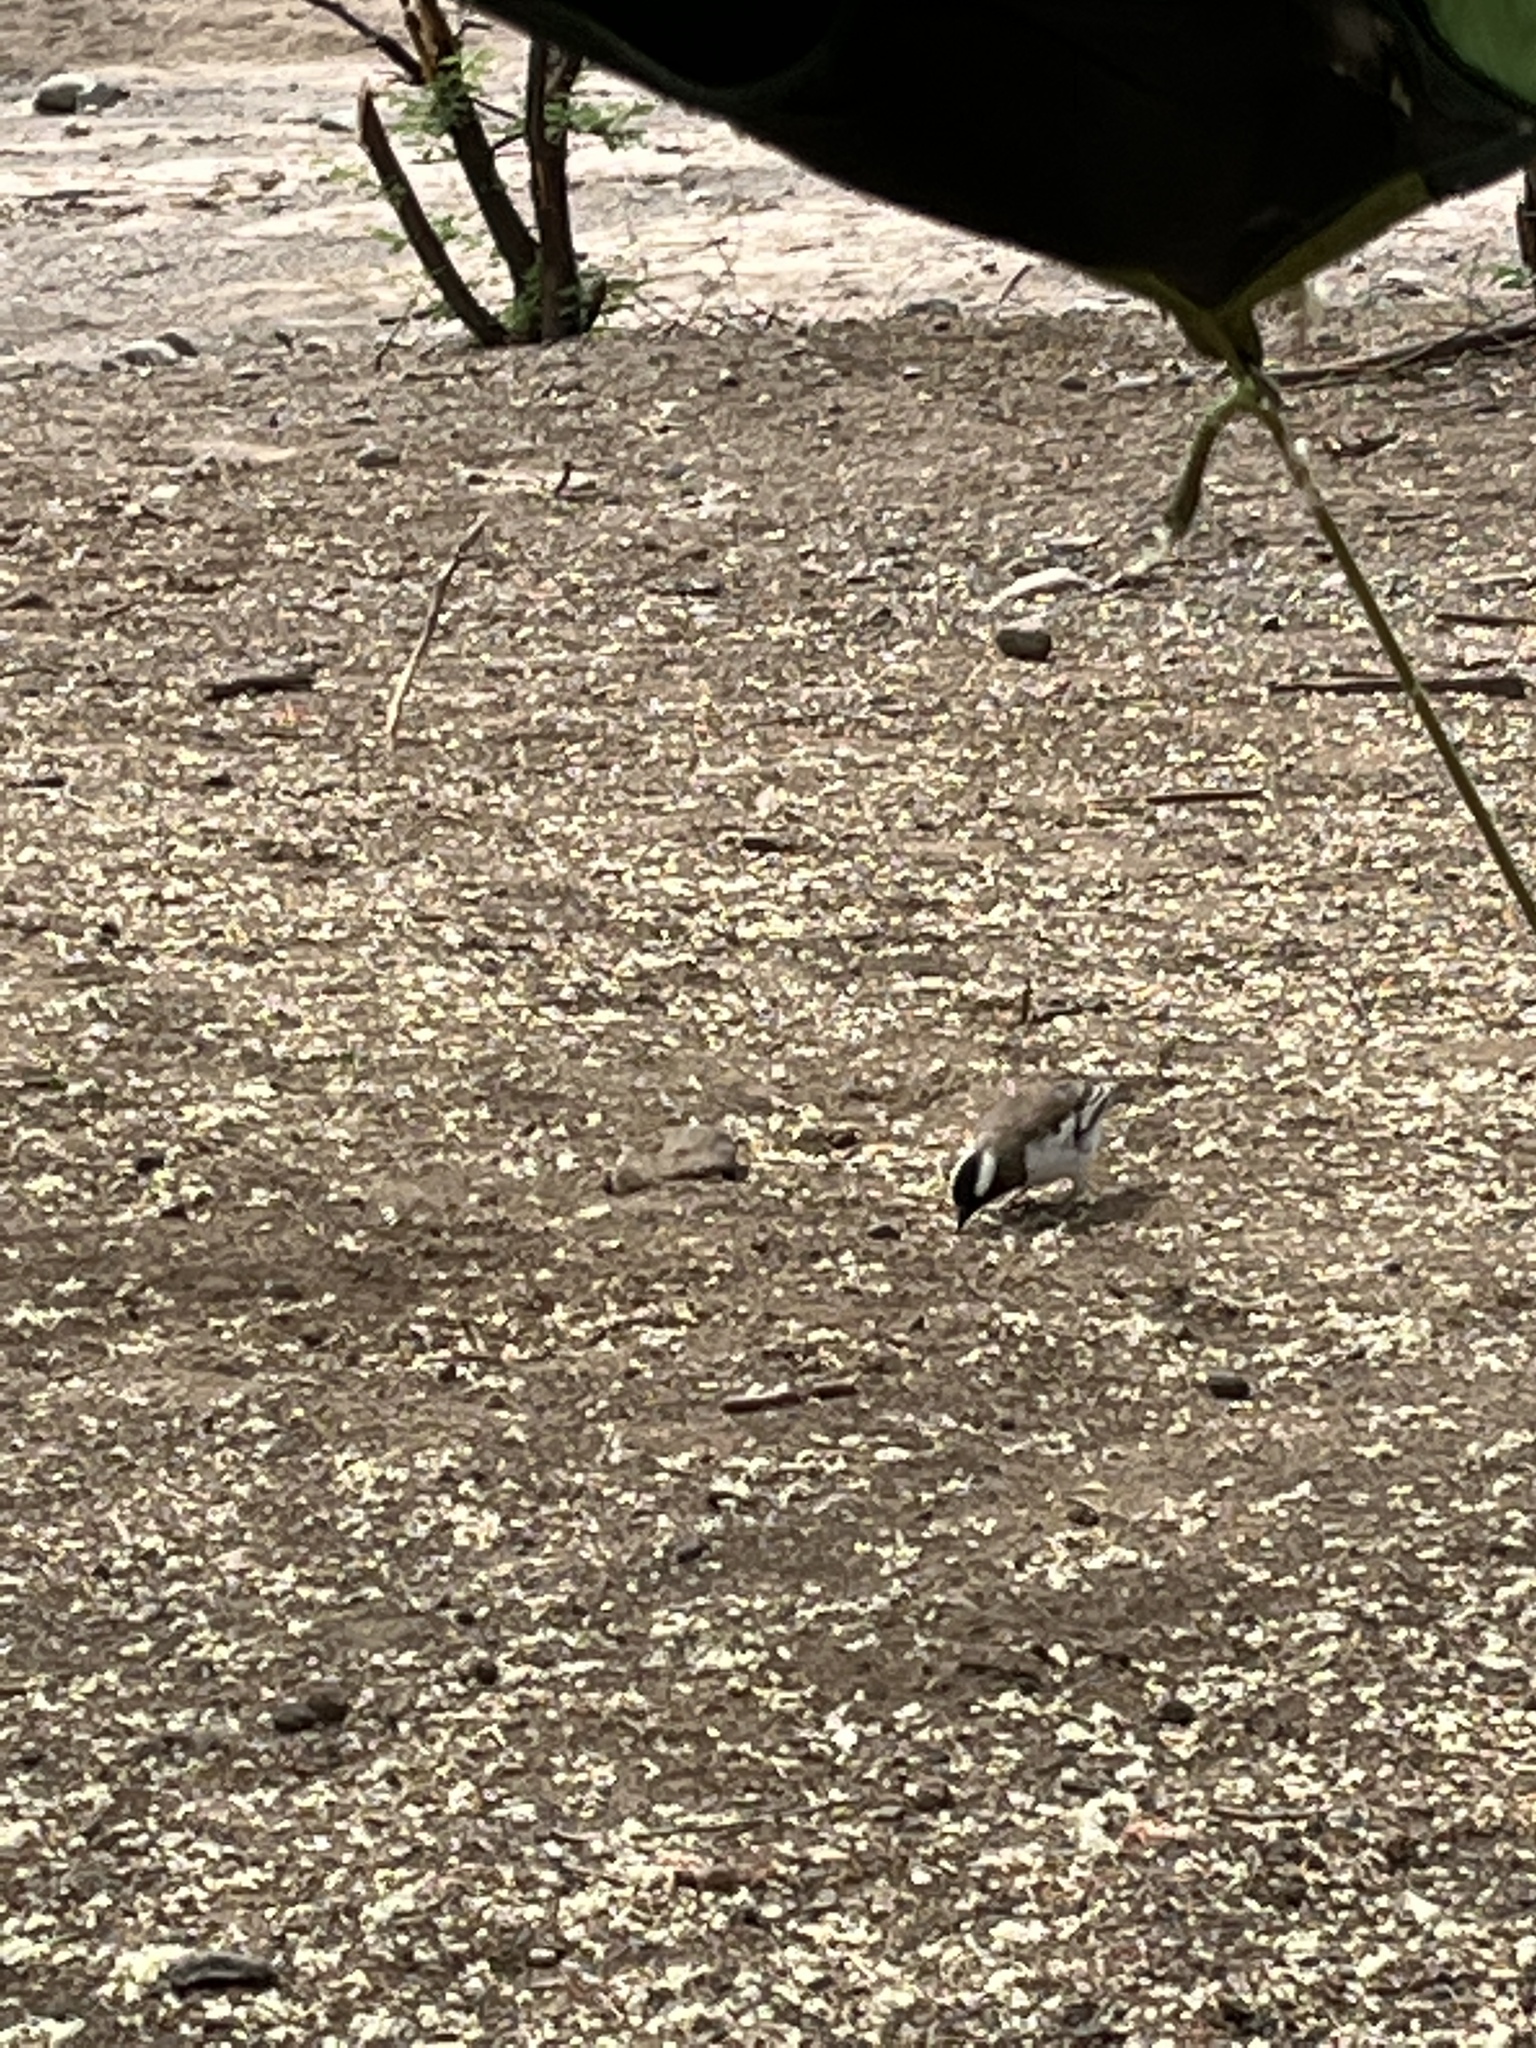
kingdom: Animalia
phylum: Chordata
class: Aves
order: Passeriformes
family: Passeridae
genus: Plocepasser
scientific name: Plocepasser mahali
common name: White-browed sparrow-weaver
